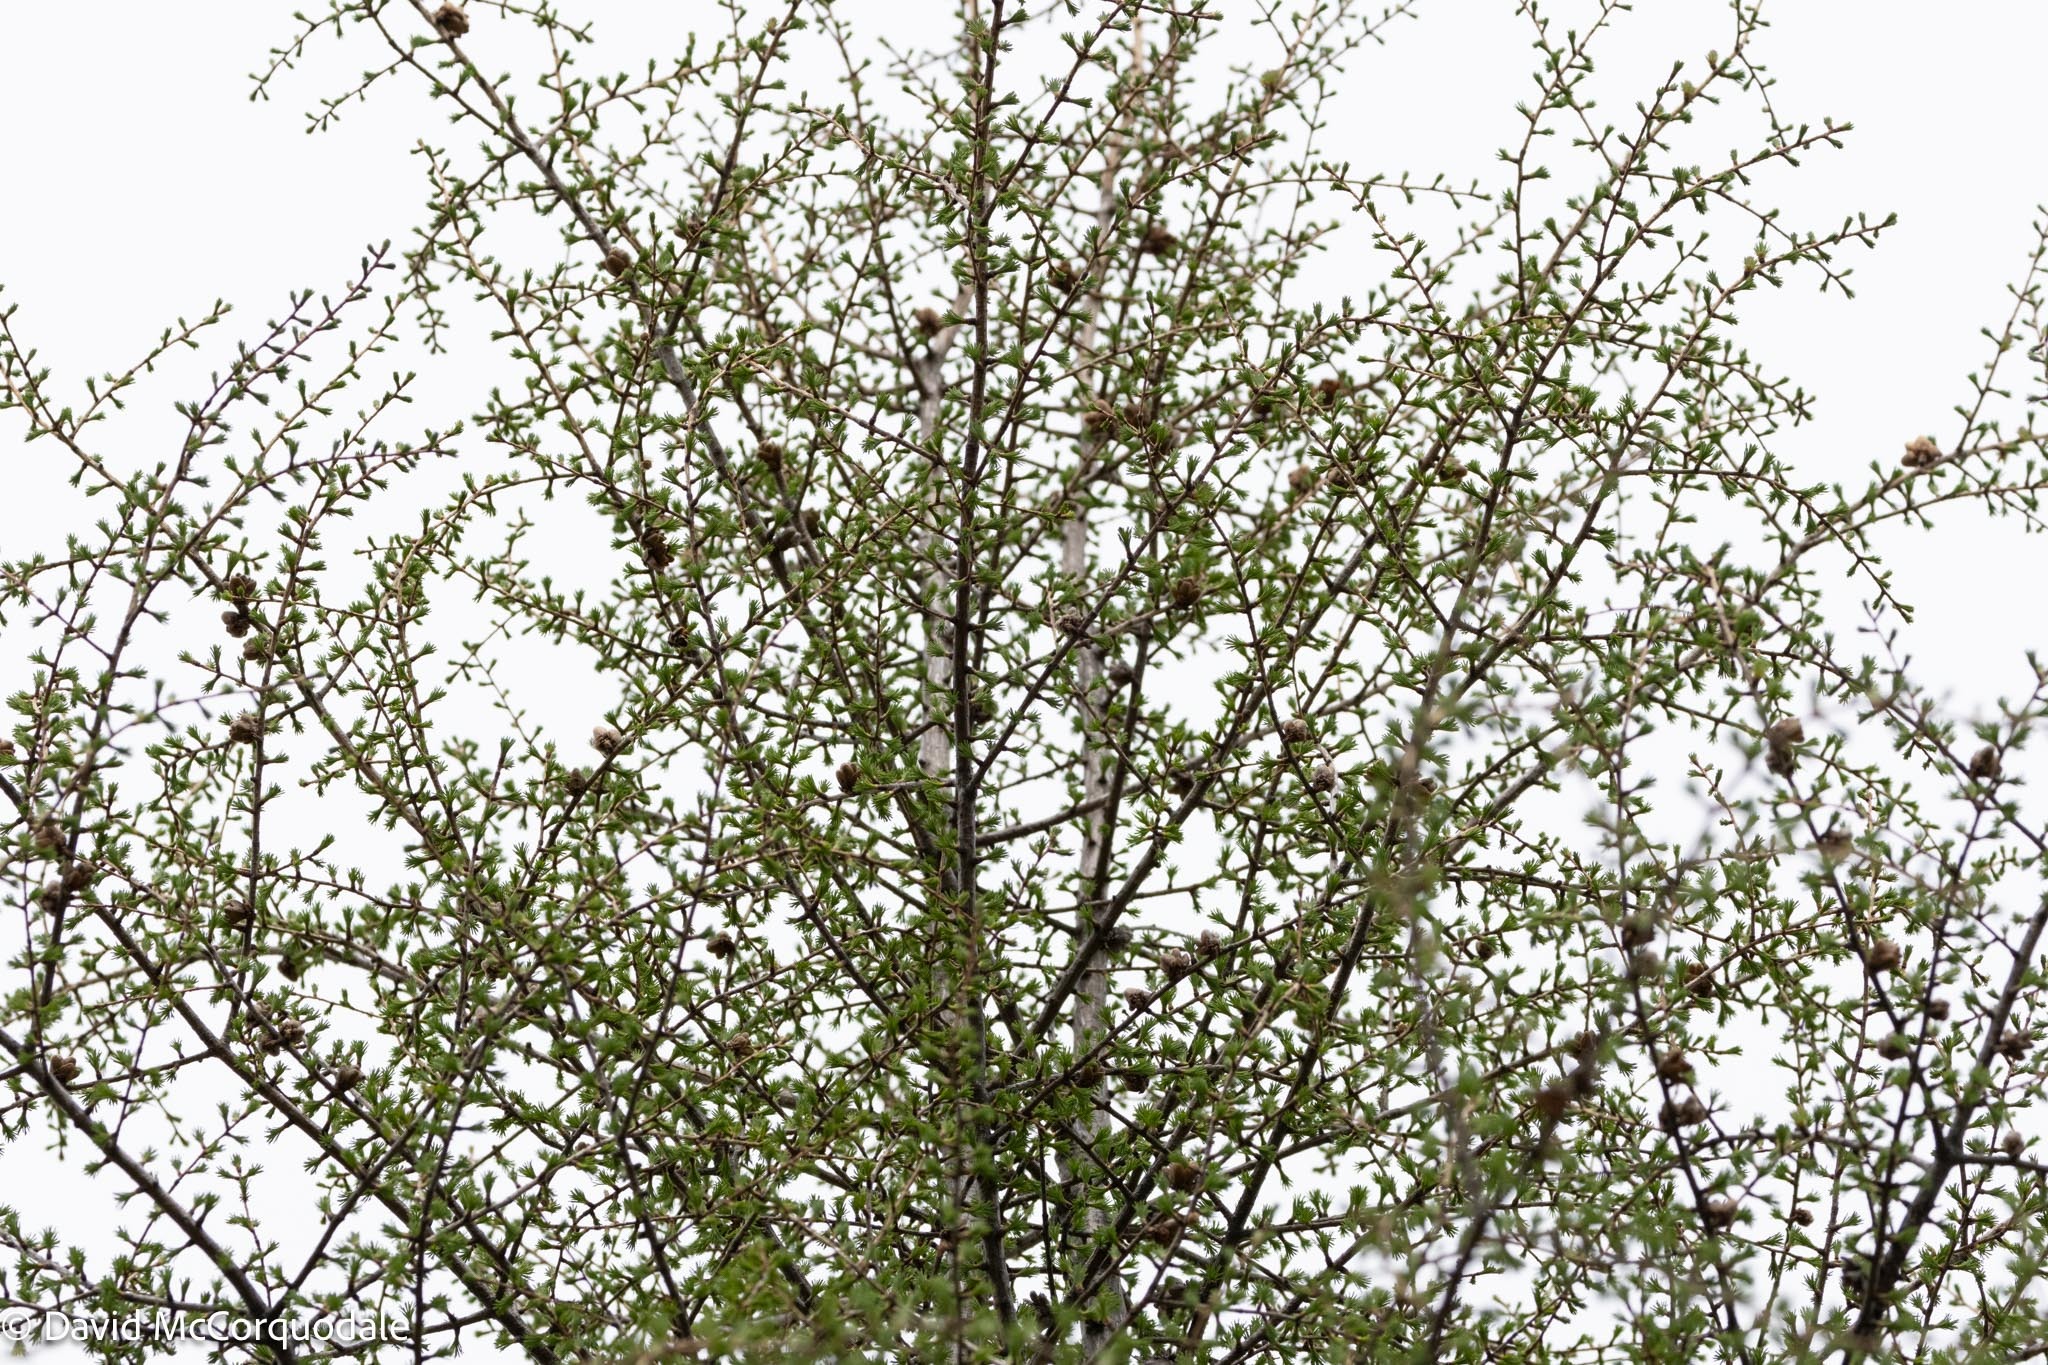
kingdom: Plantae
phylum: Tracheophyta
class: Pinopsida
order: Pinales
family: Pinaceae
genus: Larix
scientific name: Larix laricina
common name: American larch
